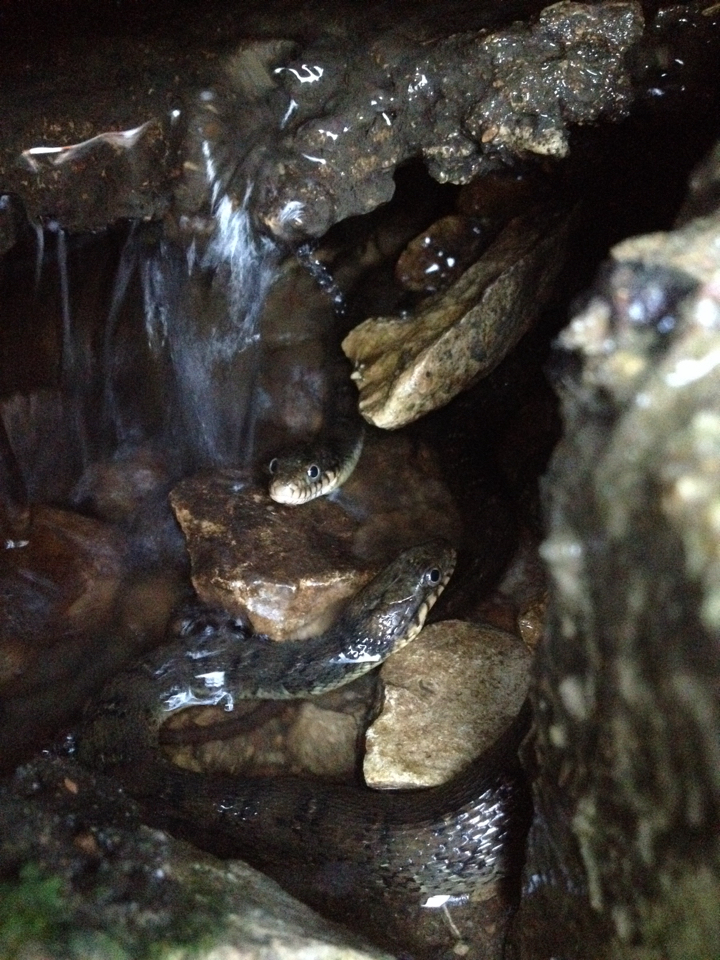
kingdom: Animalia
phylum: Chordata
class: Squamata
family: Colubridae
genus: Nerodia
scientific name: Nerodia erythrogaster
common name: Plainbelly water snake
